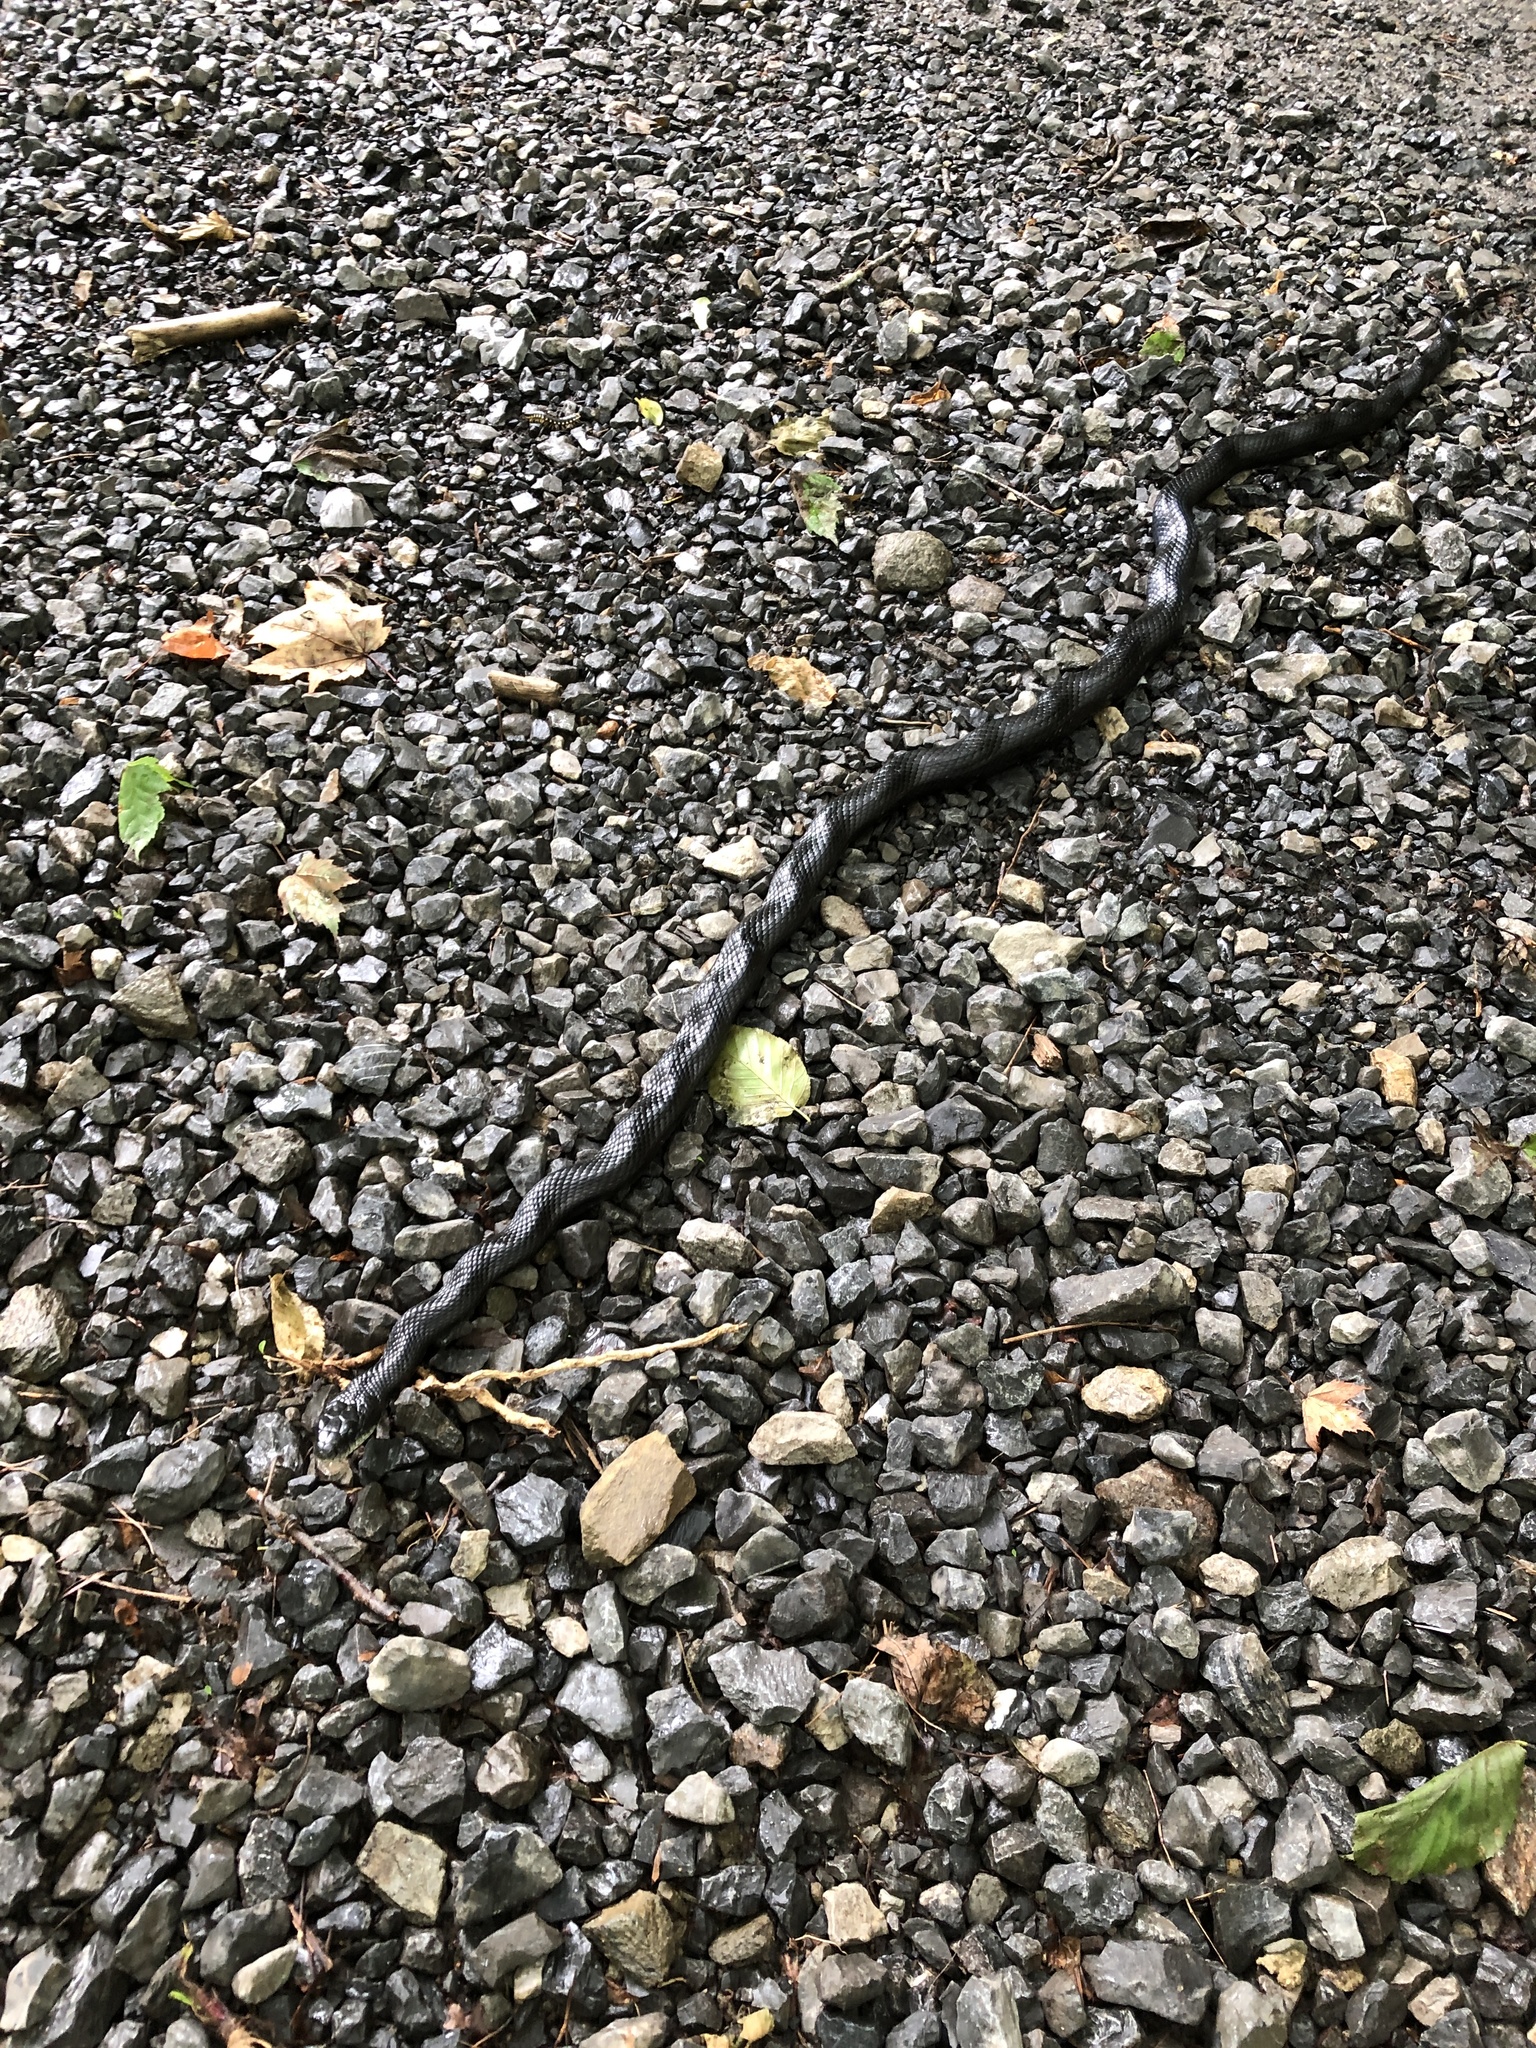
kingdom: Animalia
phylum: Chordata
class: Squamata
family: Colubridae
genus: Pantherophis
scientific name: Pantherophis spiloides
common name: Gray rat snake
